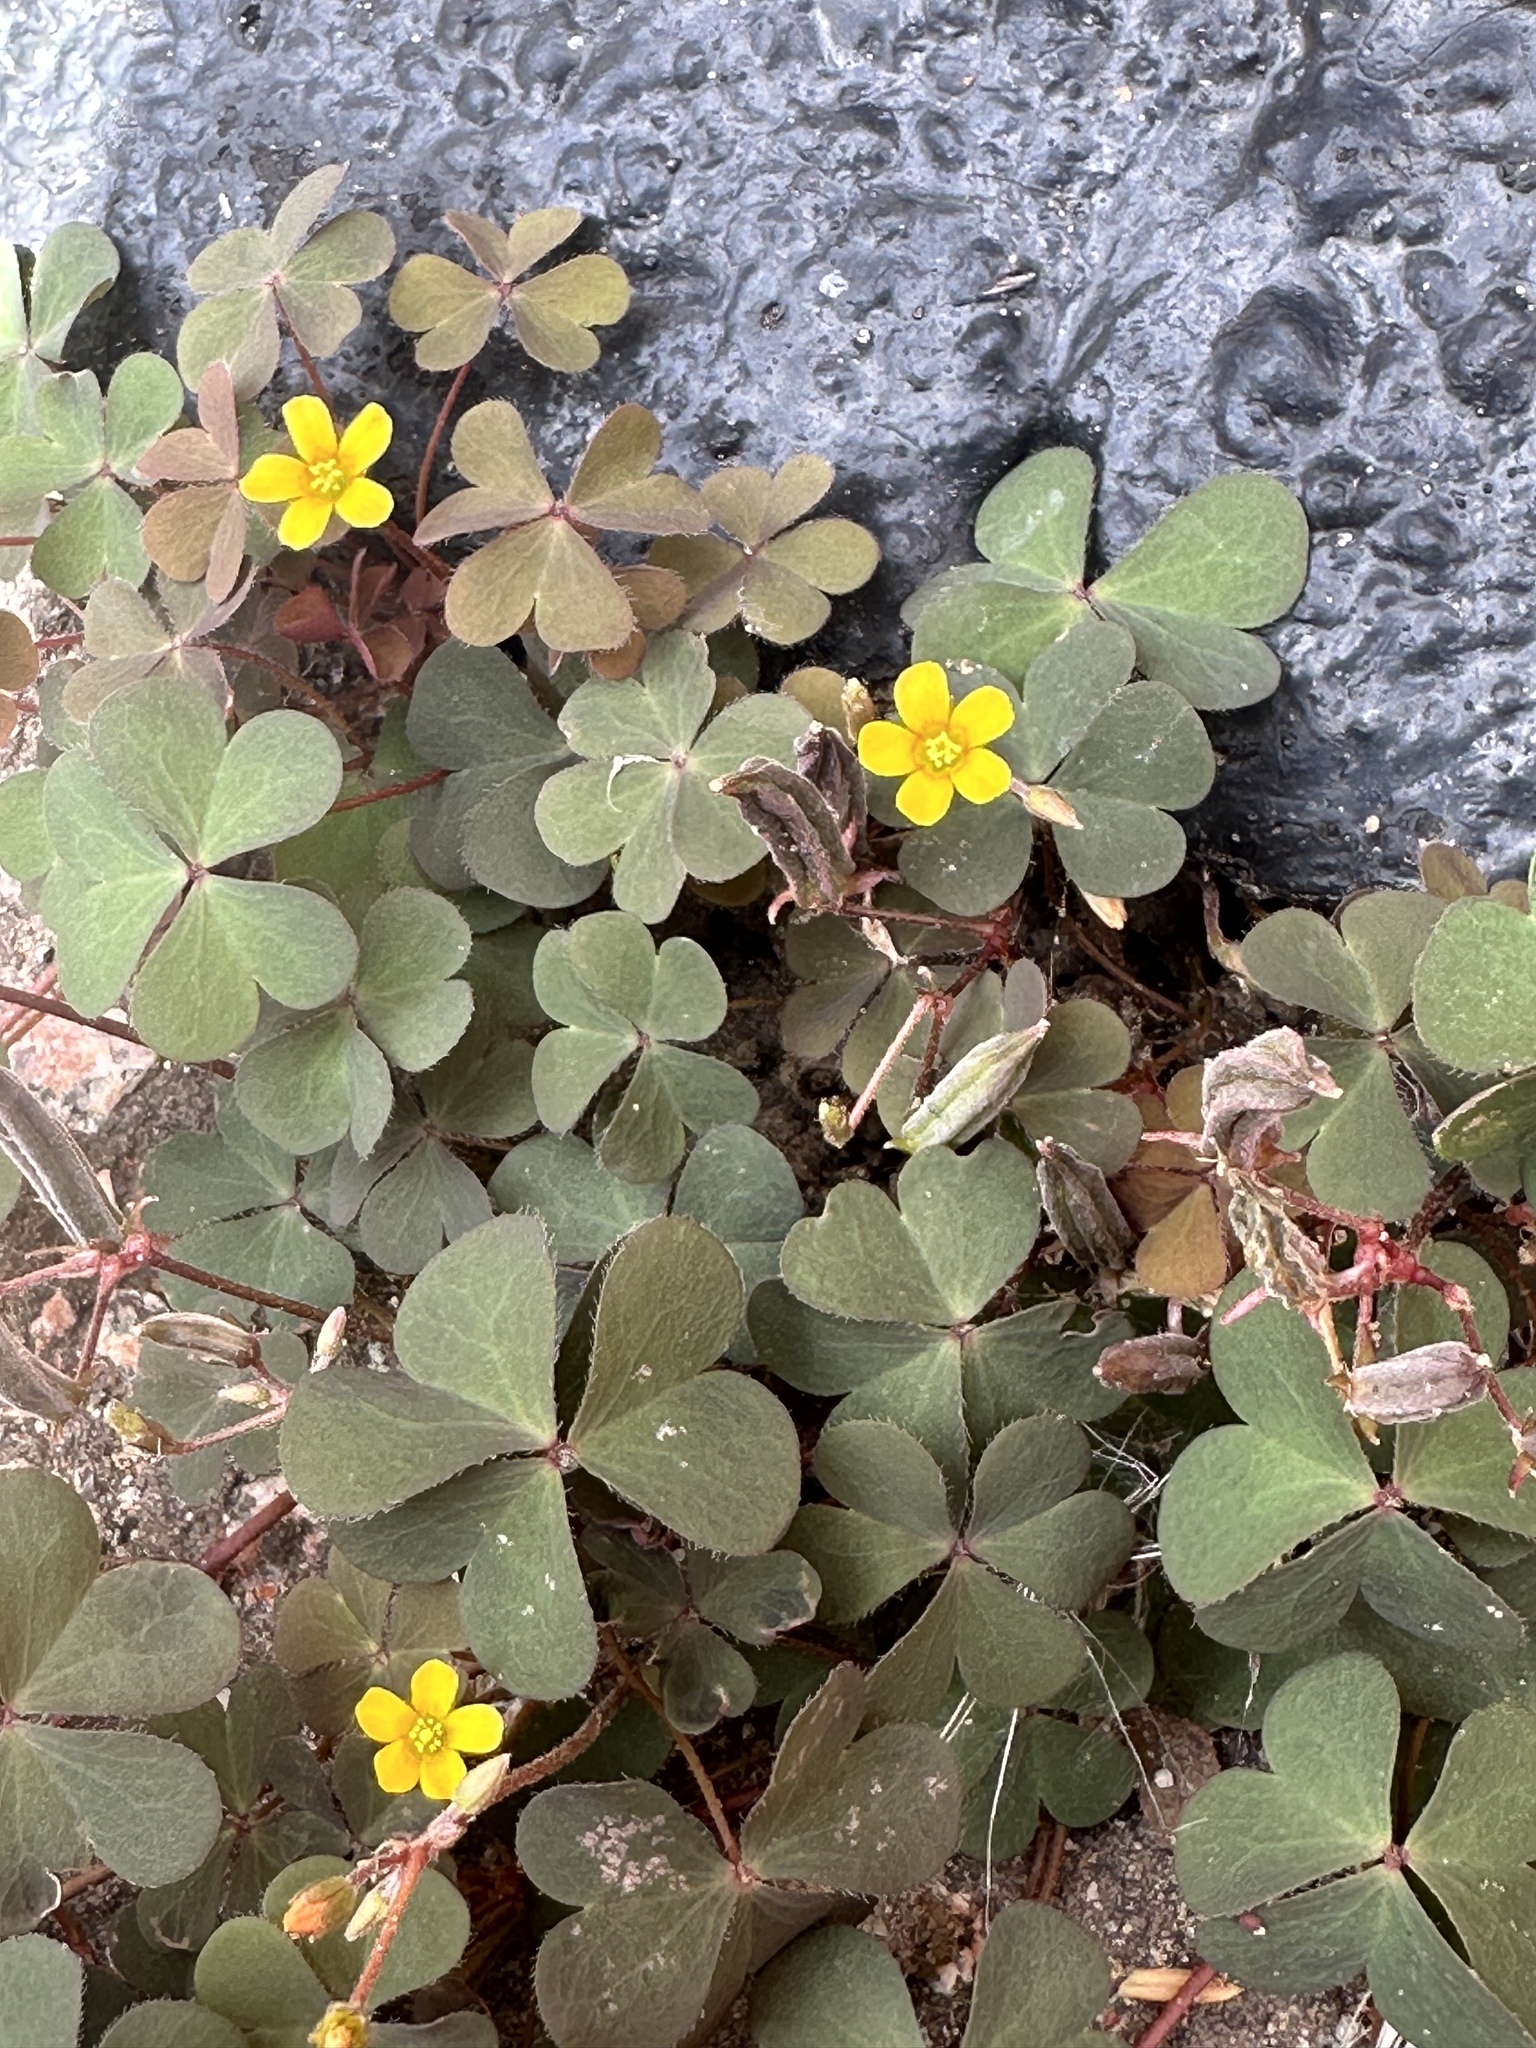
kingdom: Plantae
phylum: Tracheophyta
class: Magnoliopsida
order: Oxalidales
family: Oxalidaceae
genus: Oxalis
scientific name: Oxalis corniculata
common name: Procumbent yellow-sorrel
